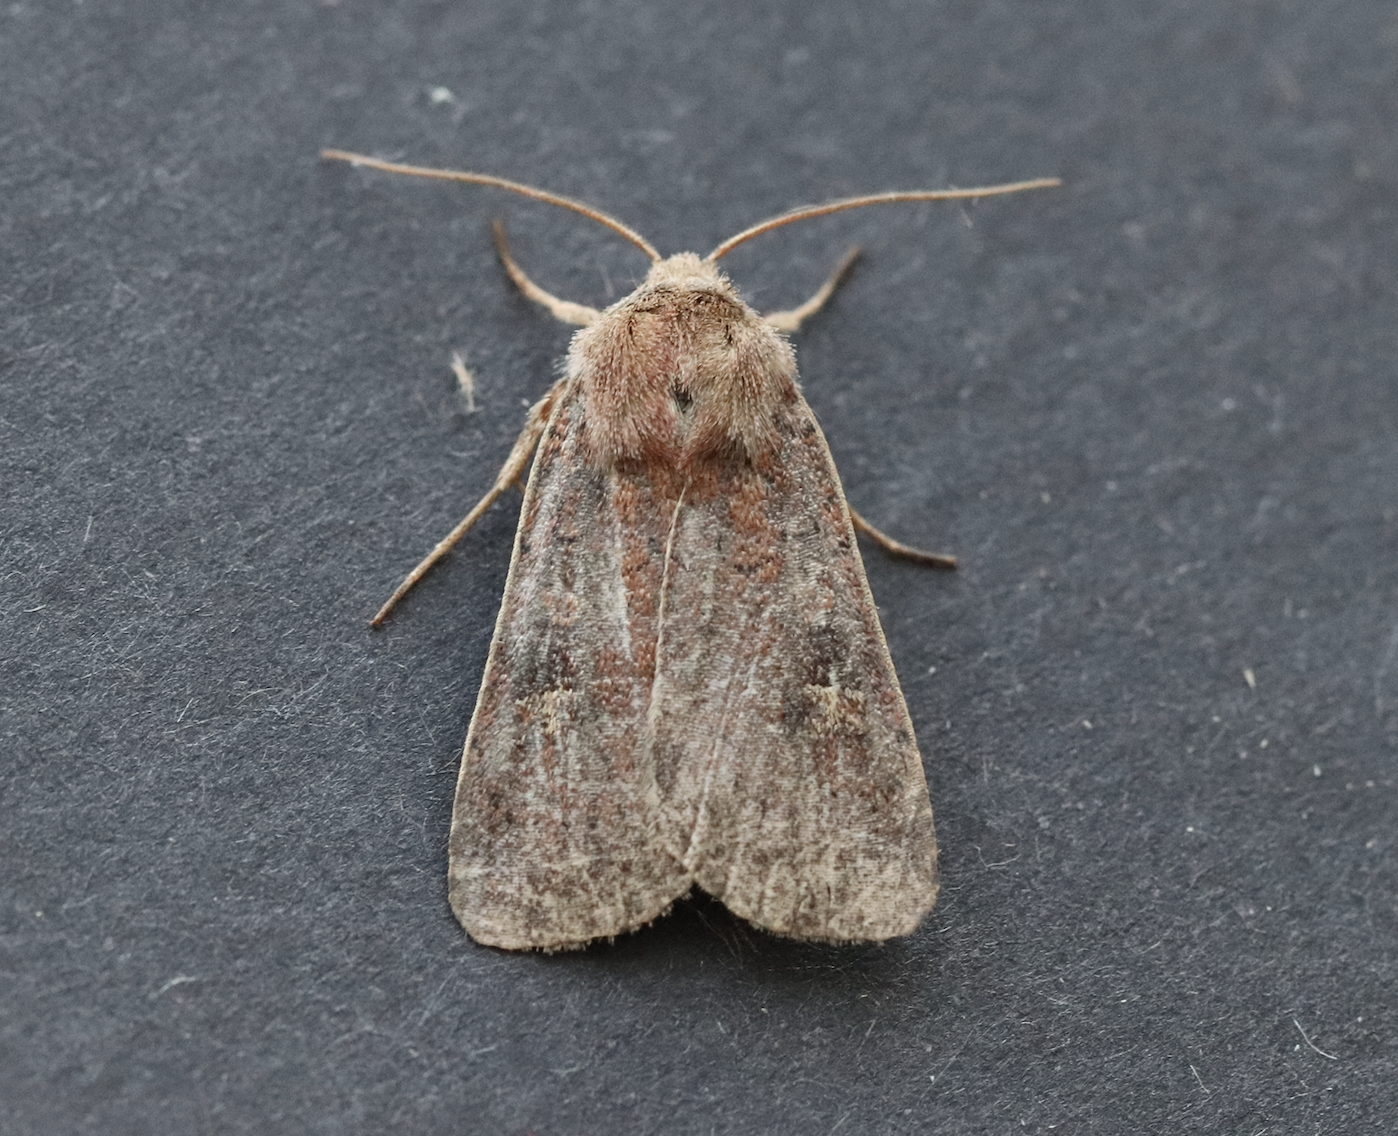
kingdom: Animalia
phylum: Arthropoda
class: Insecta
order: Lepidoptera
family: Noctuidae
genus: Xestia
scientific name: Xestia xanthographa
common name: Square-spot rustic
